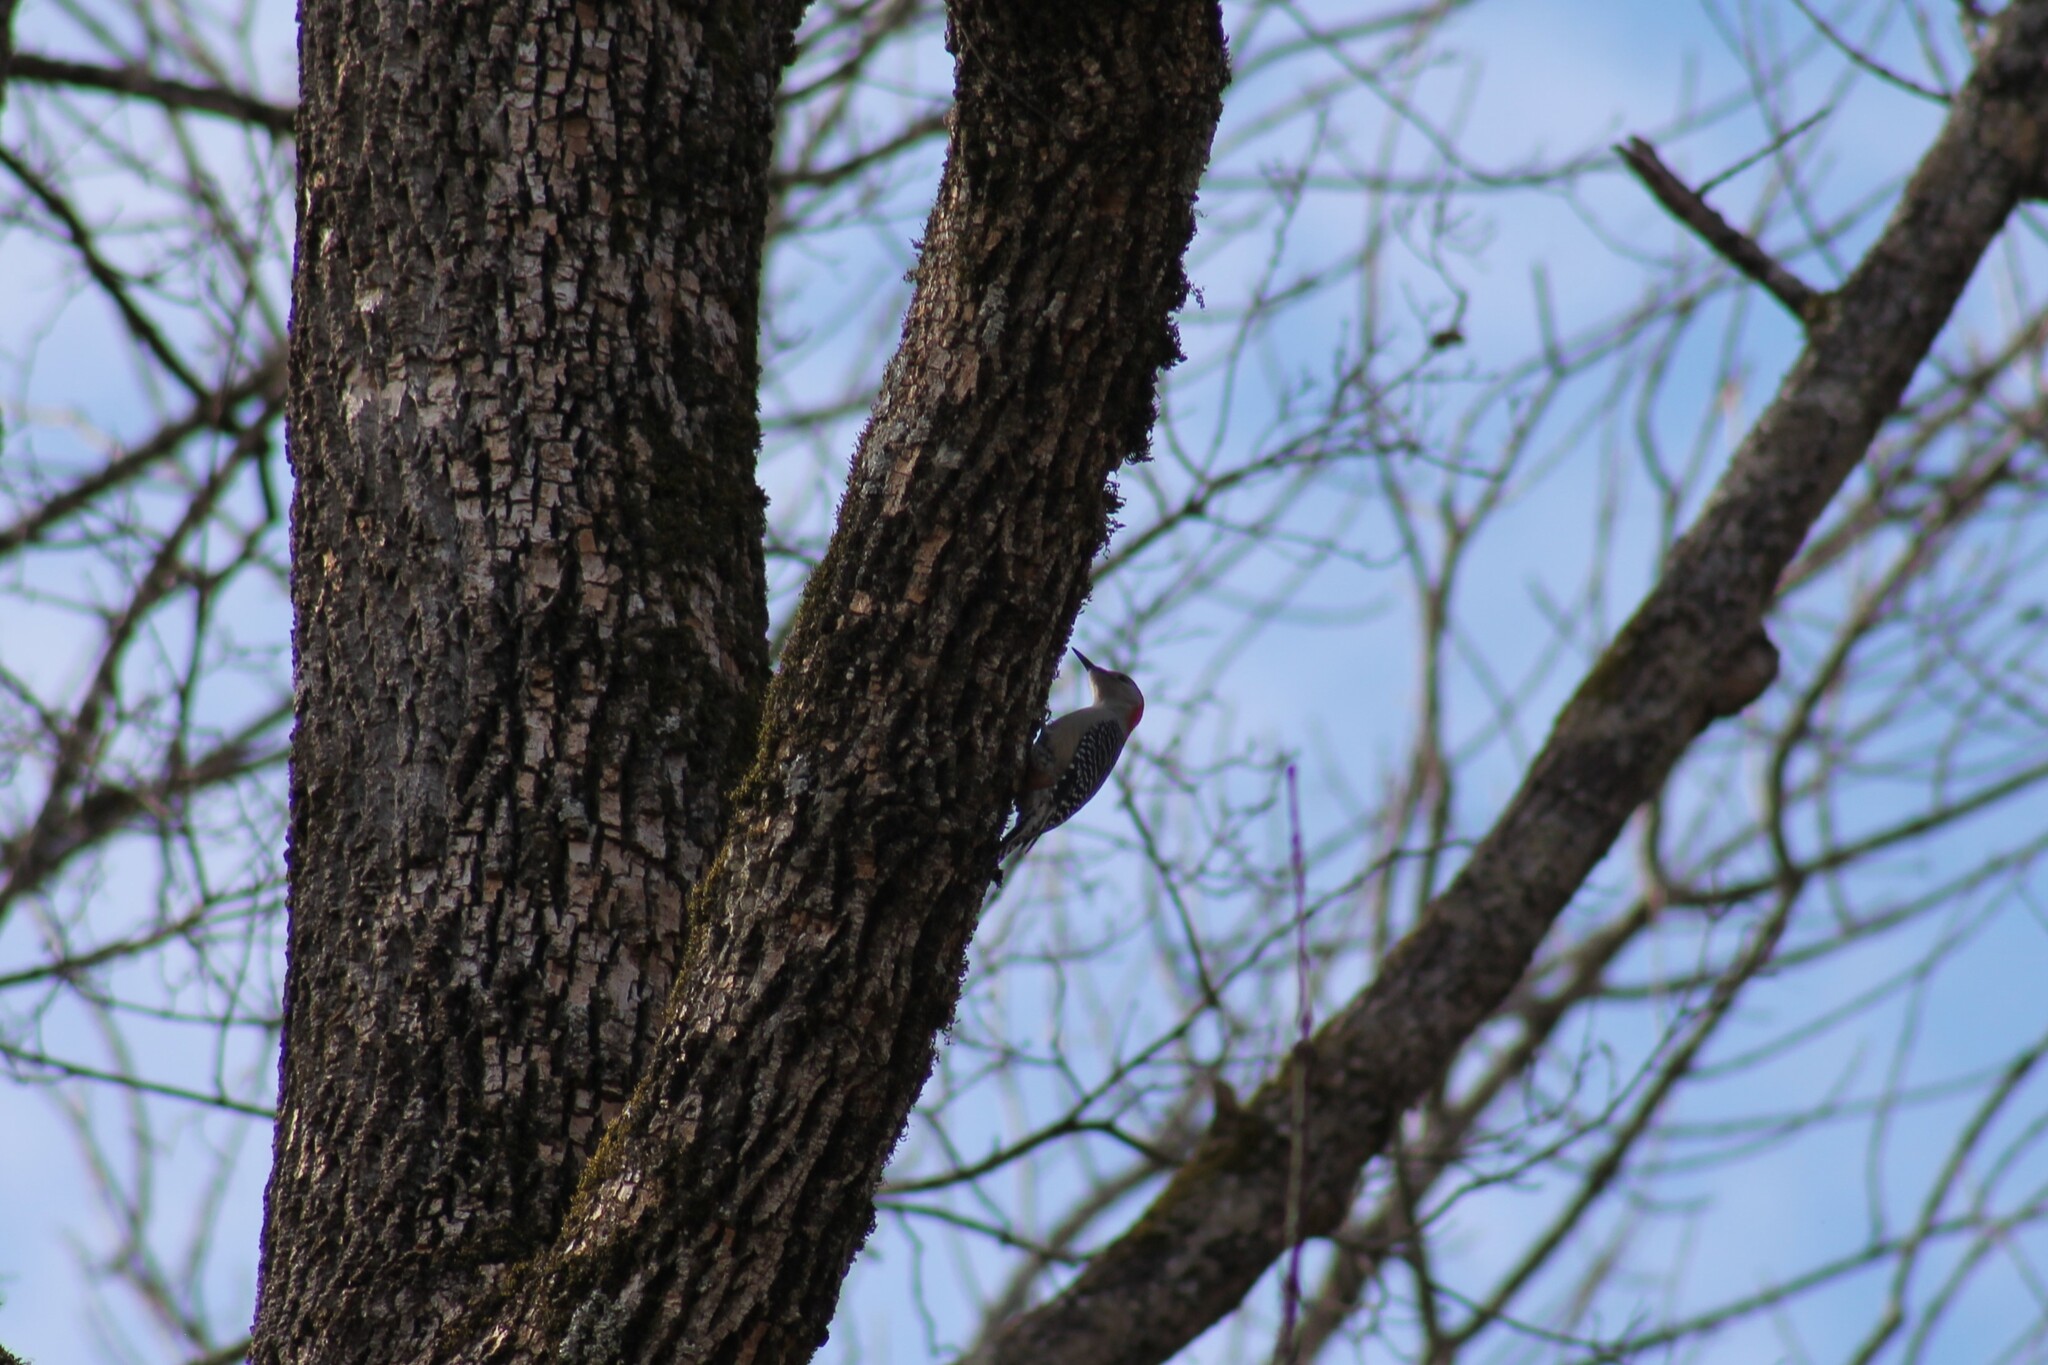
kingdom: Animalia
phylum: Chordata
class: Aves
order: Piciformes
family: Picidae
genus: Melanerpes
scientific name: Melanerpes carolinus
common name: Red-bellied woodpecker
